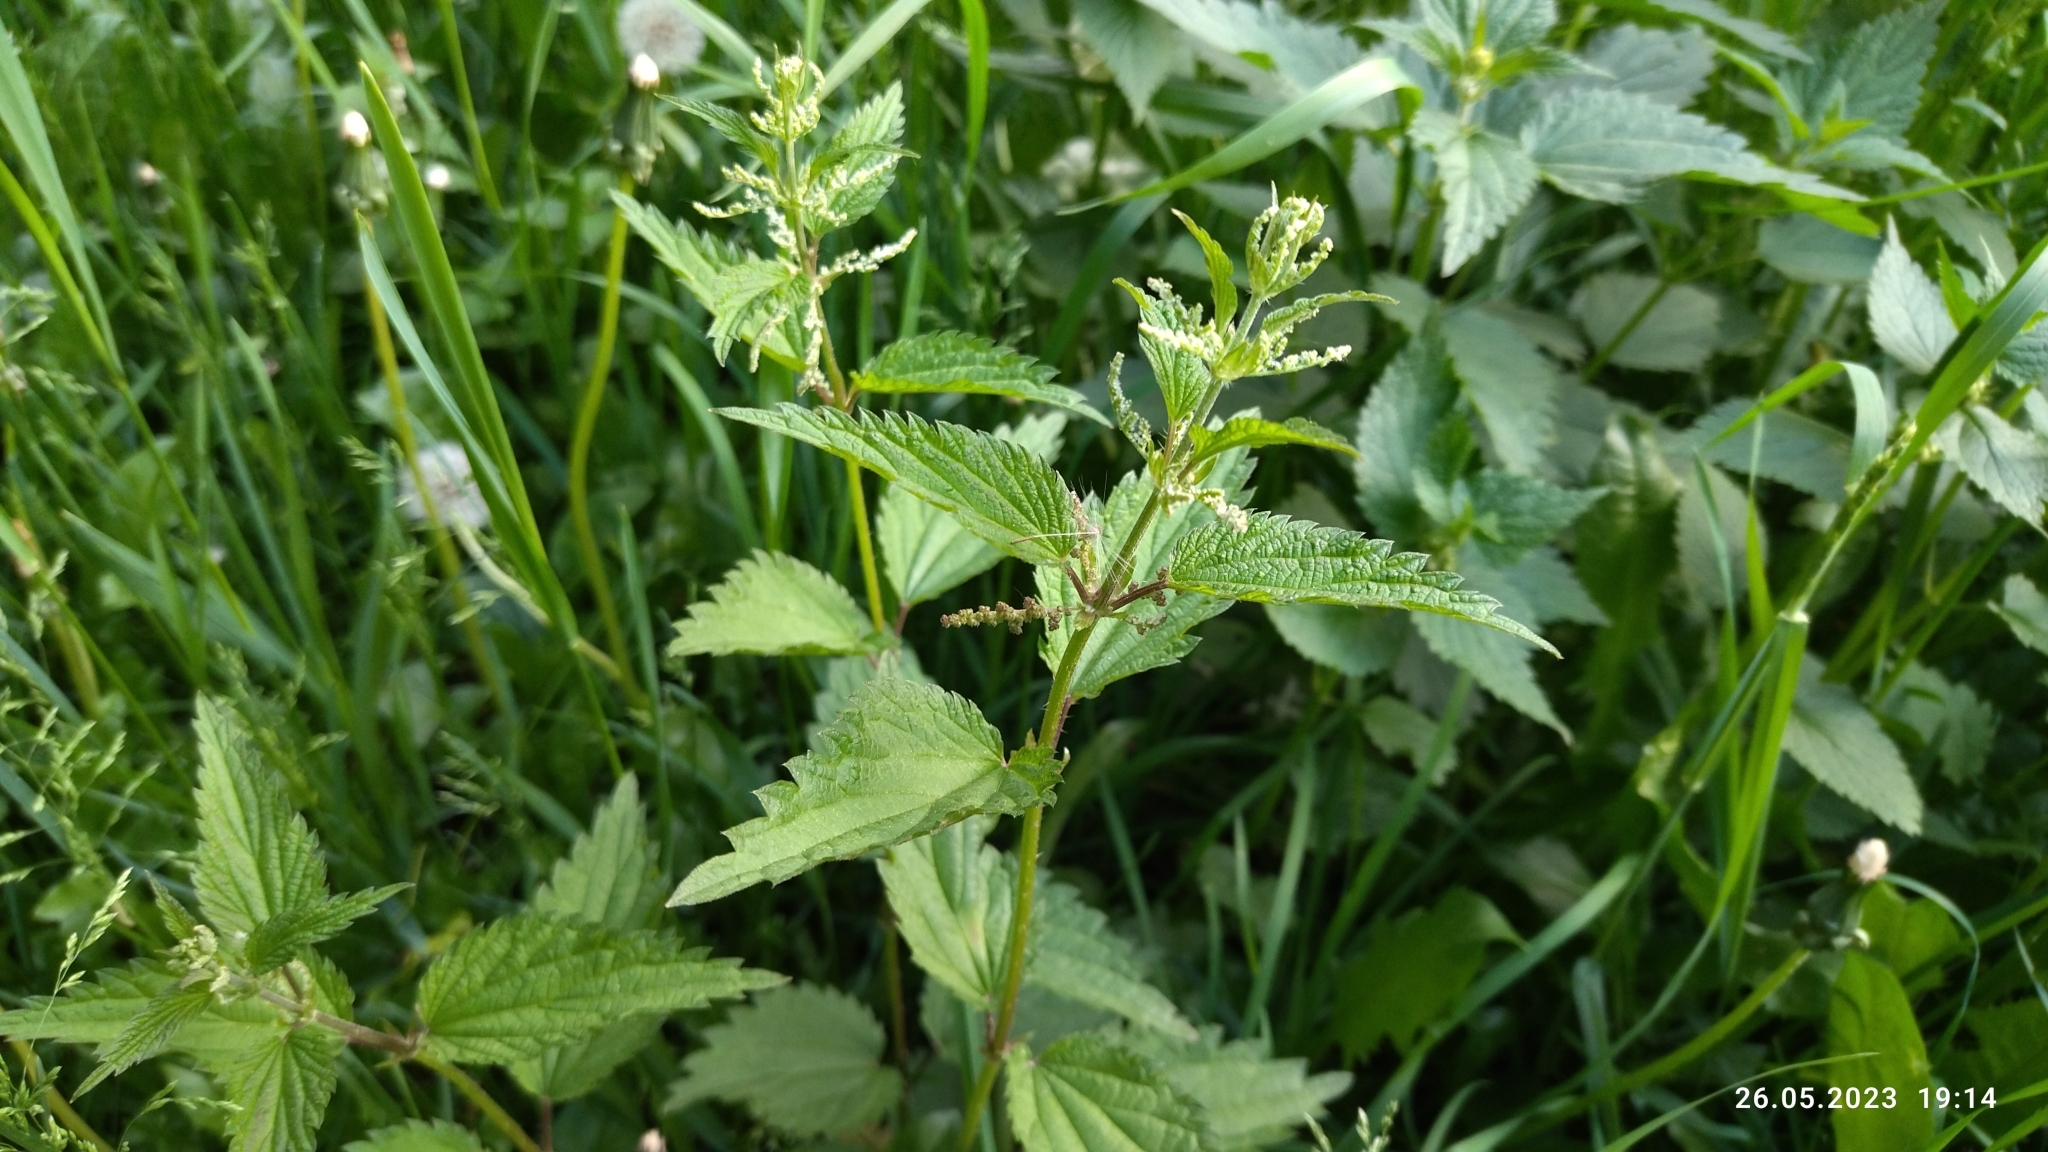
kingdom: Plantae
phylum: Tracheophyta
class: Magnoliopsida
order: Rosales
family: Urticaceae
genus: Urtica
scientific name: Urtica dioica
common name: Common nettle
